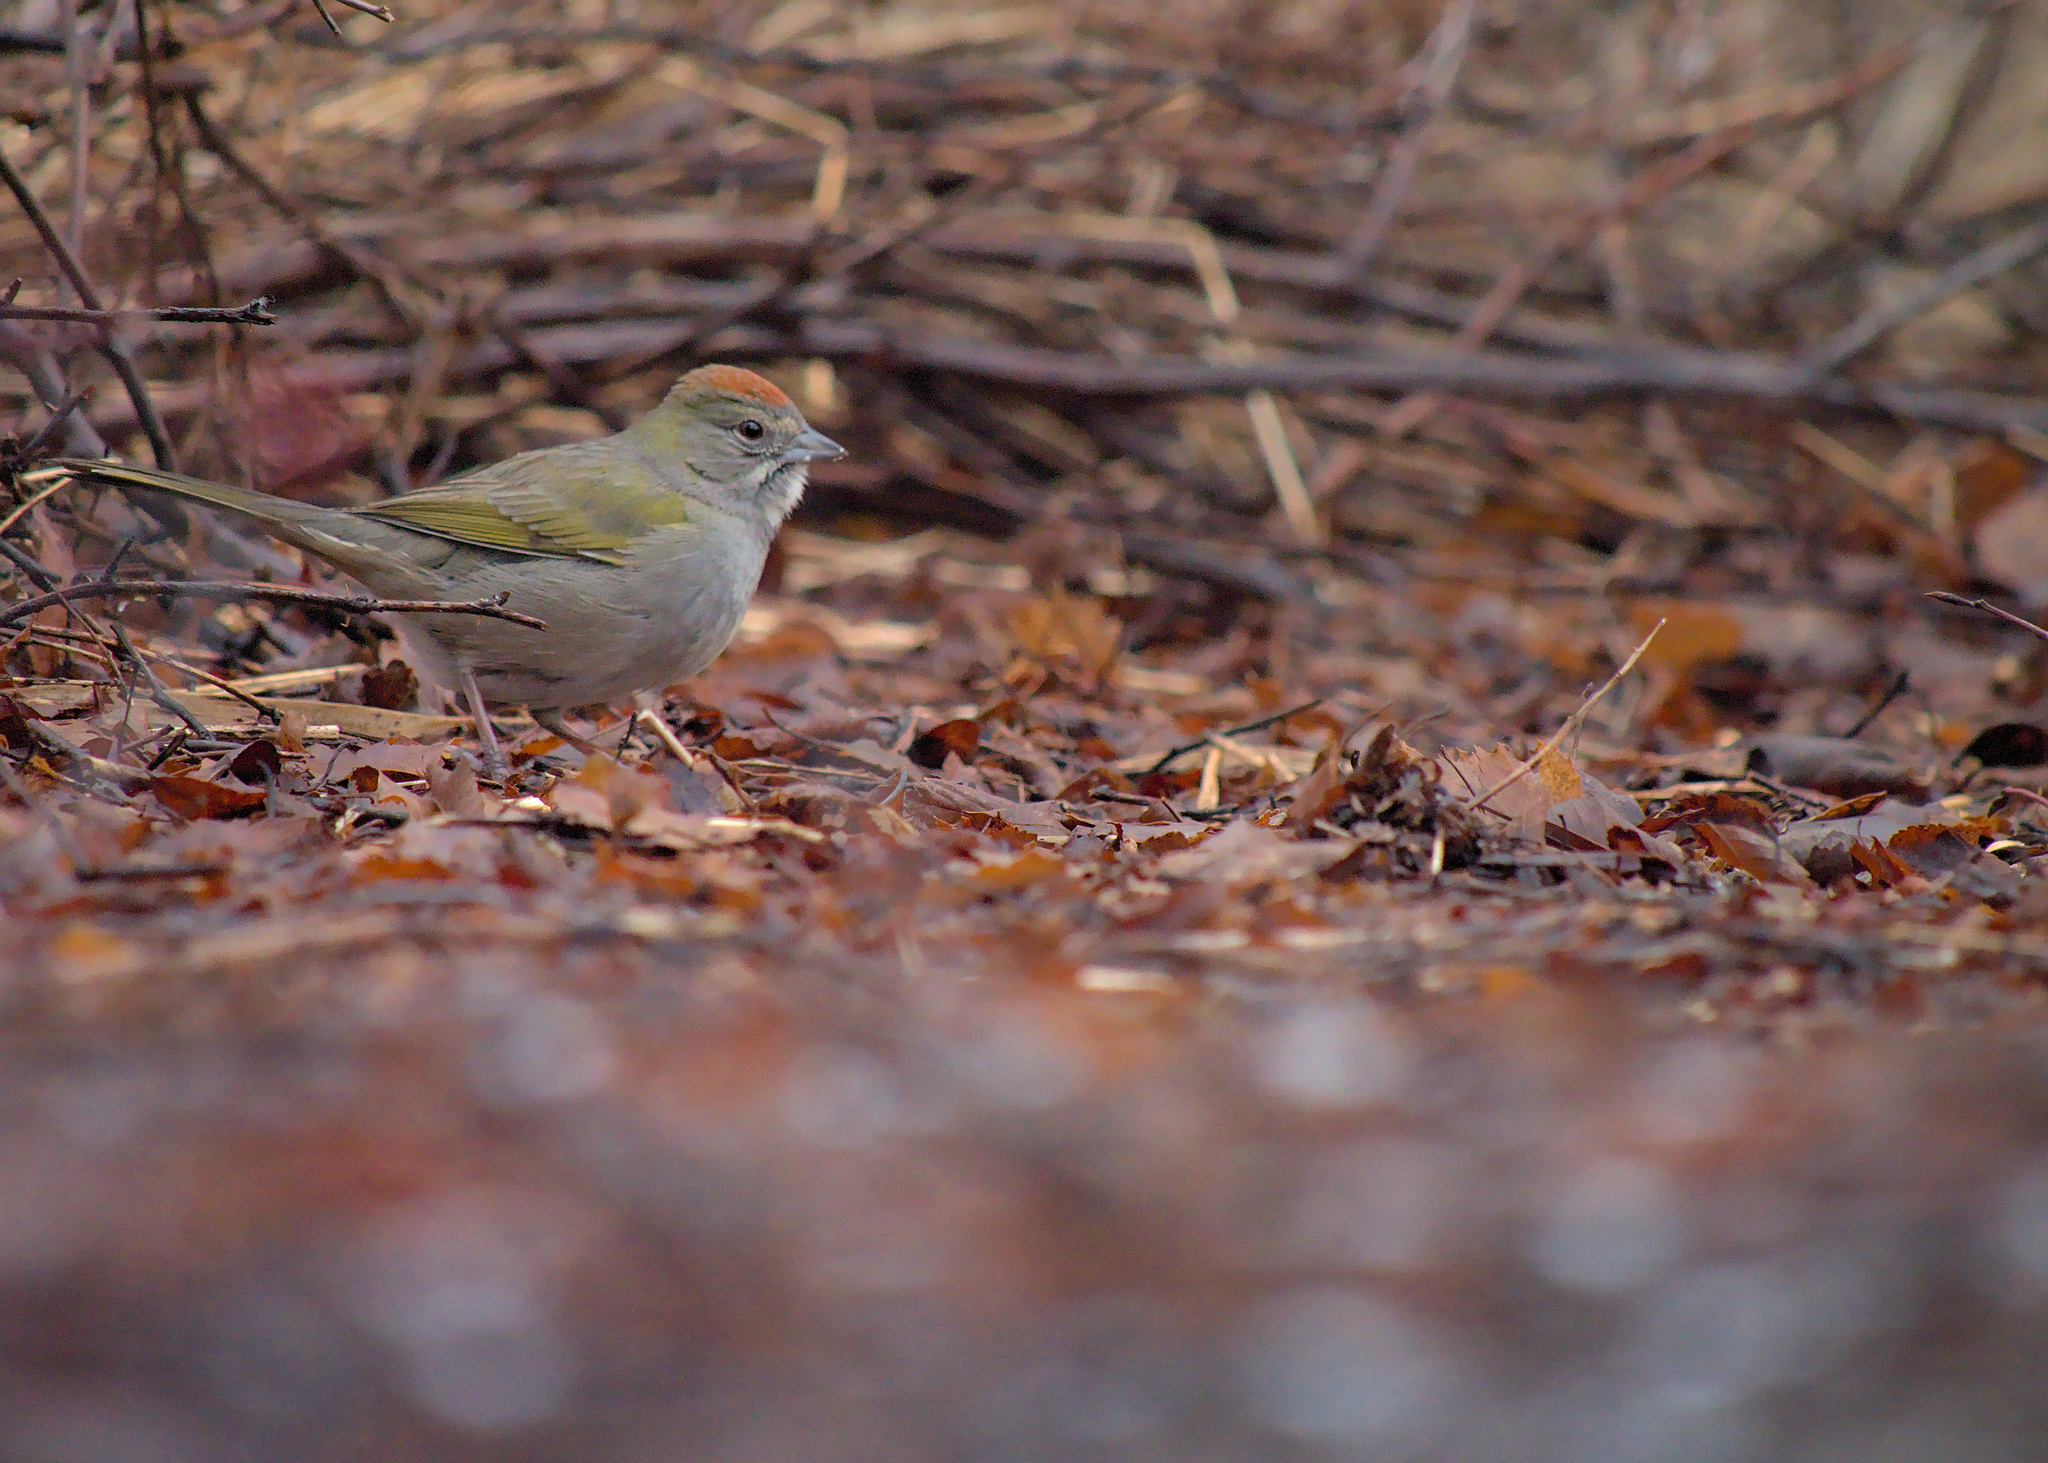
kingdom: Animalia
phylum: Chordata
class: Aves
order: Passeriformes
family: Passerellidae
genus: Pipilo
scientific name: Pipilo chlorurus
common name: Green-tailed towhee
